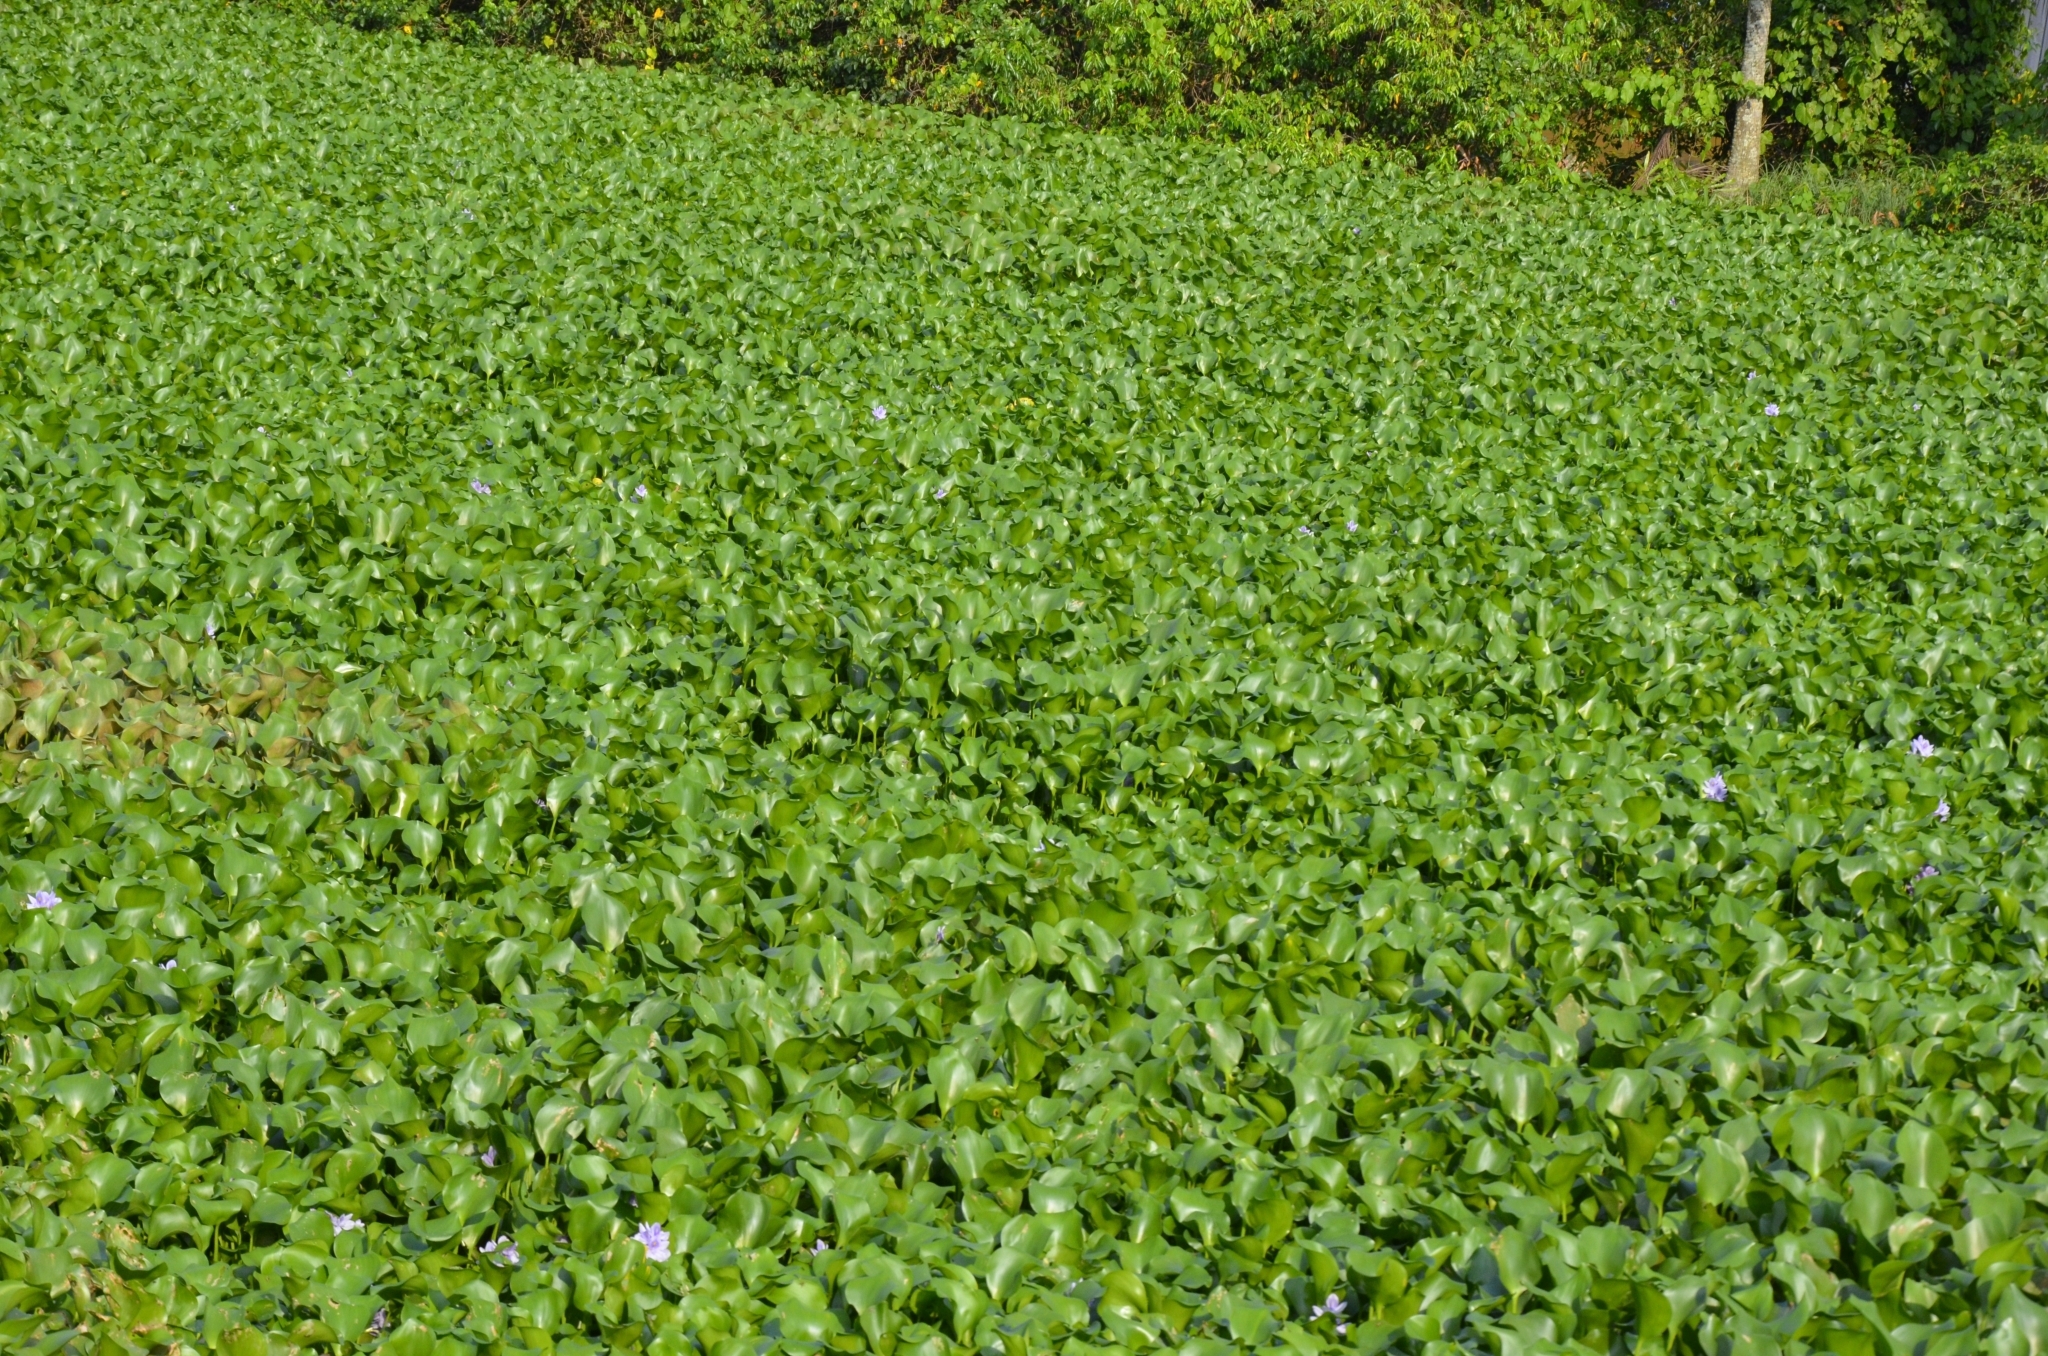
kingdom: Plantae
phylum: Tracheophyta
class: Liliopsida
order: Commelinales
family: Pontederiaceae
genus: Pontederia
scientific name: Pontederia crassipes
